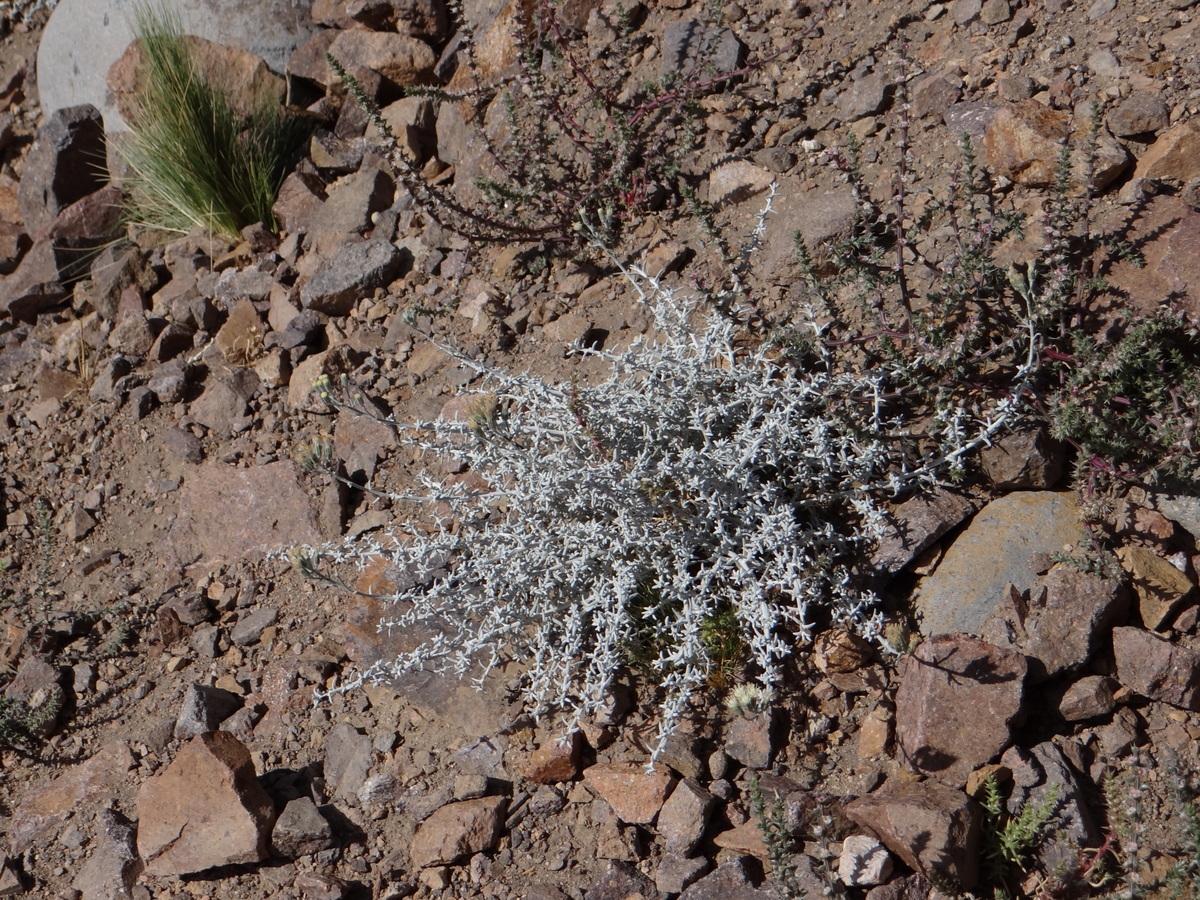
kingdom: Plantae
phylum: Tracheophyta
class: Magnoliopsida
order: Asterales
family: Asteraceae
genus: Artemisia
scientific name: Artemisia mendozana
